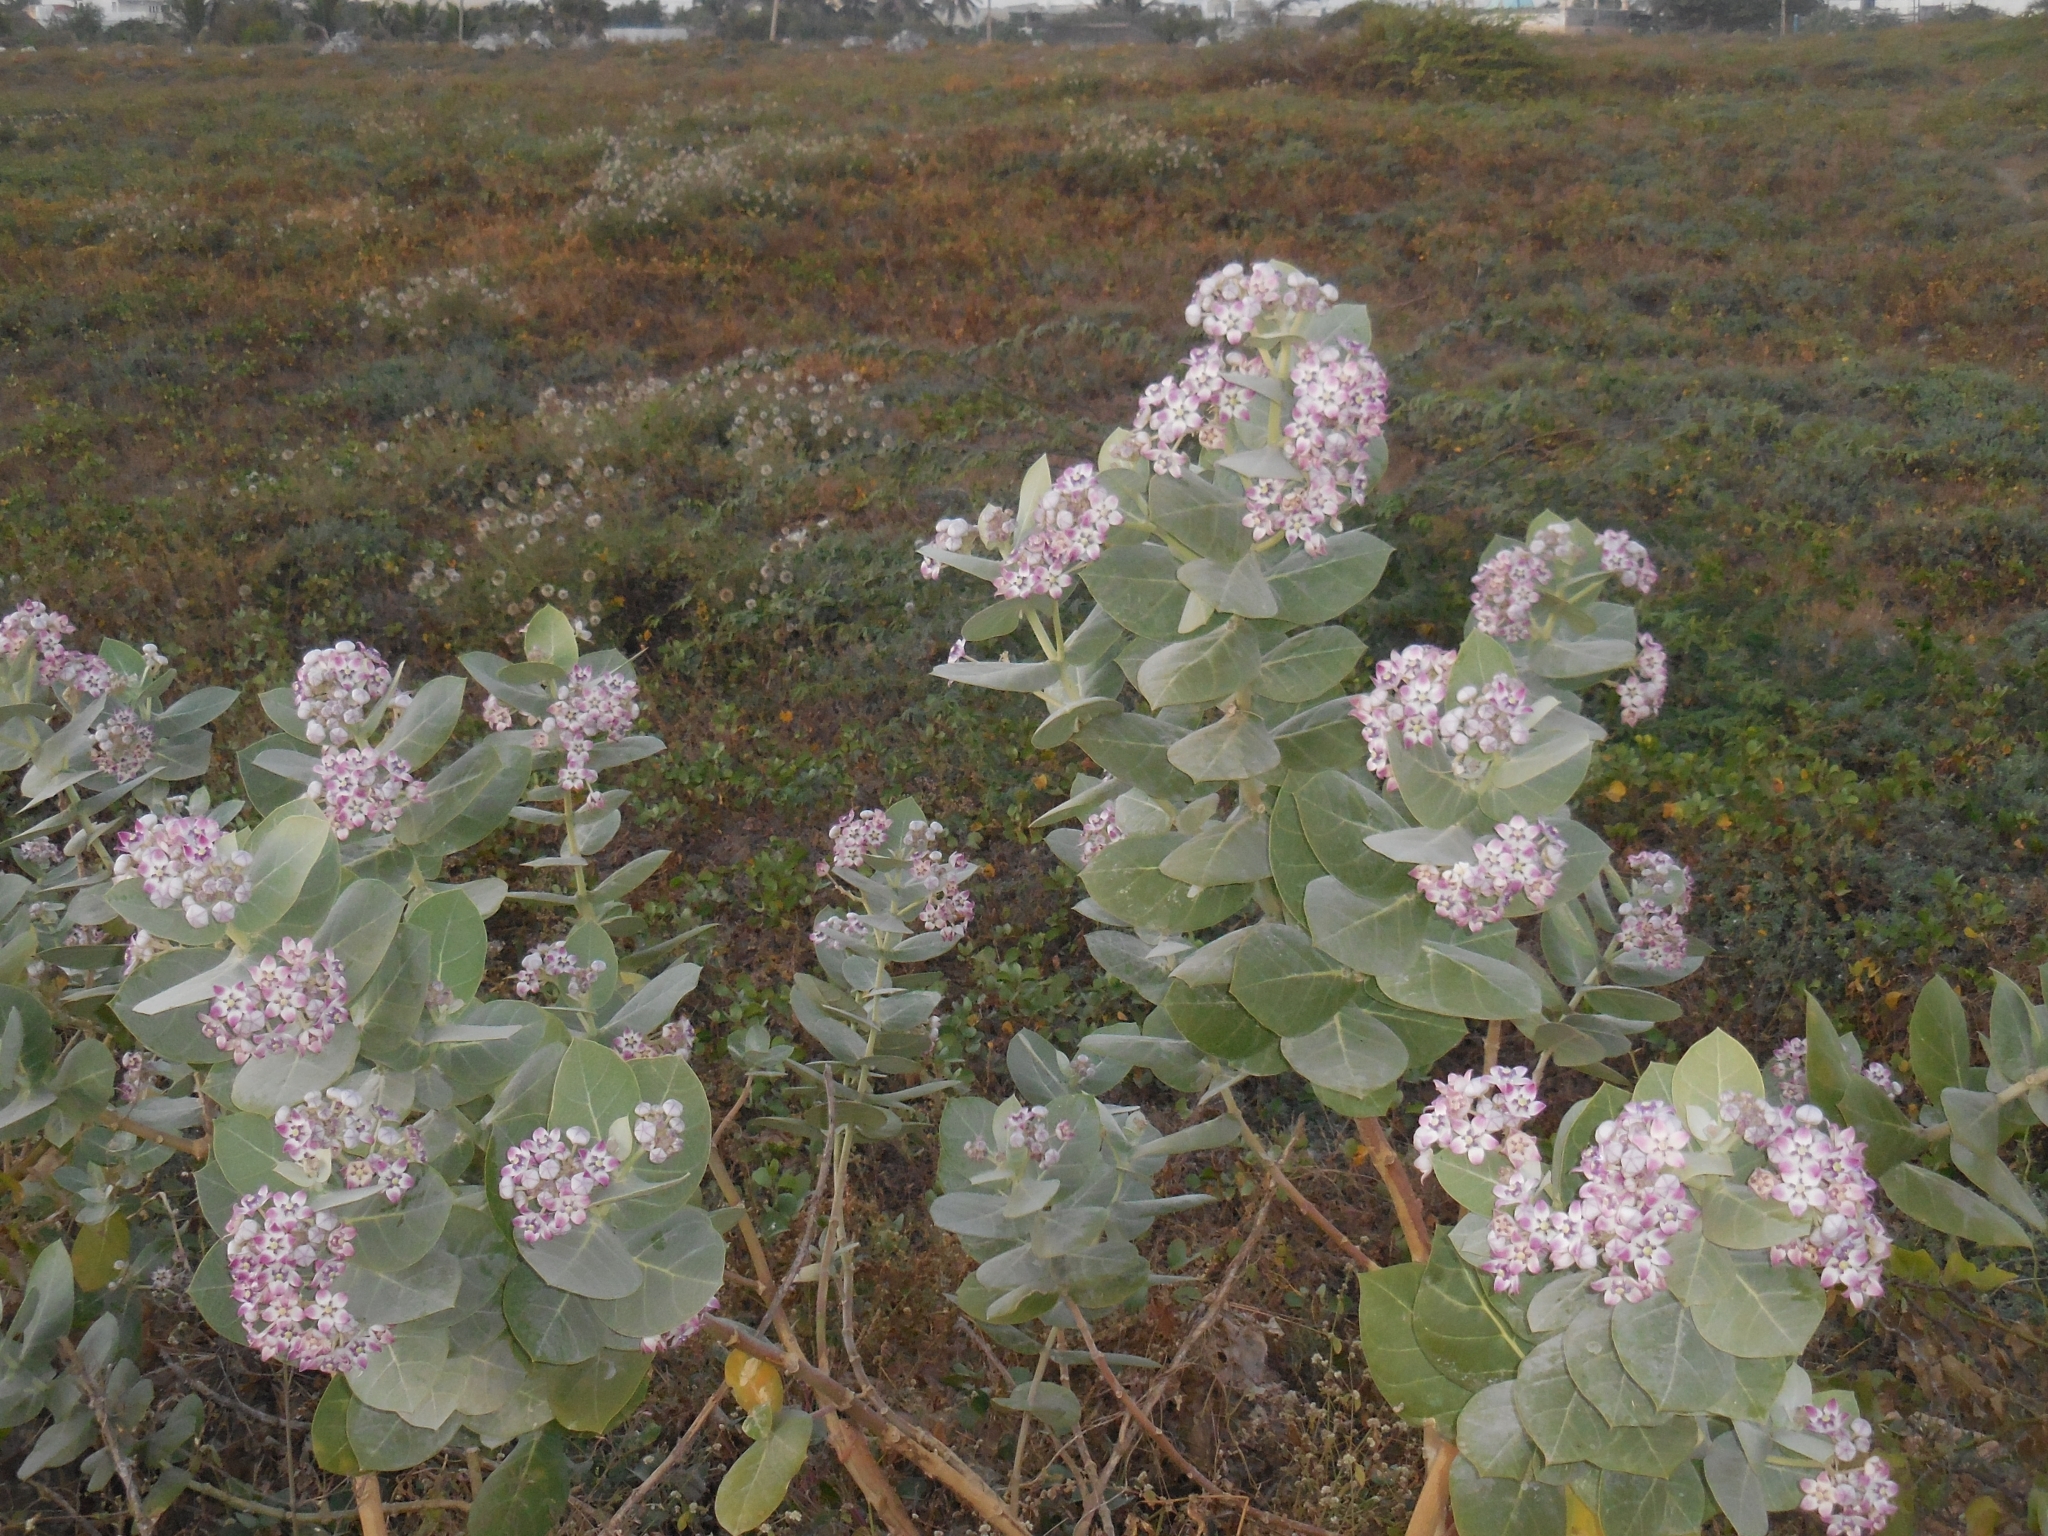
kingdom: Plantae
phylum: Tracheophyta
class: Magnoliopsida
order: Gentianales
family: Apocynaceae
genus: Calotropis
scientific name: Calotropis procera
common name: Roostertree
